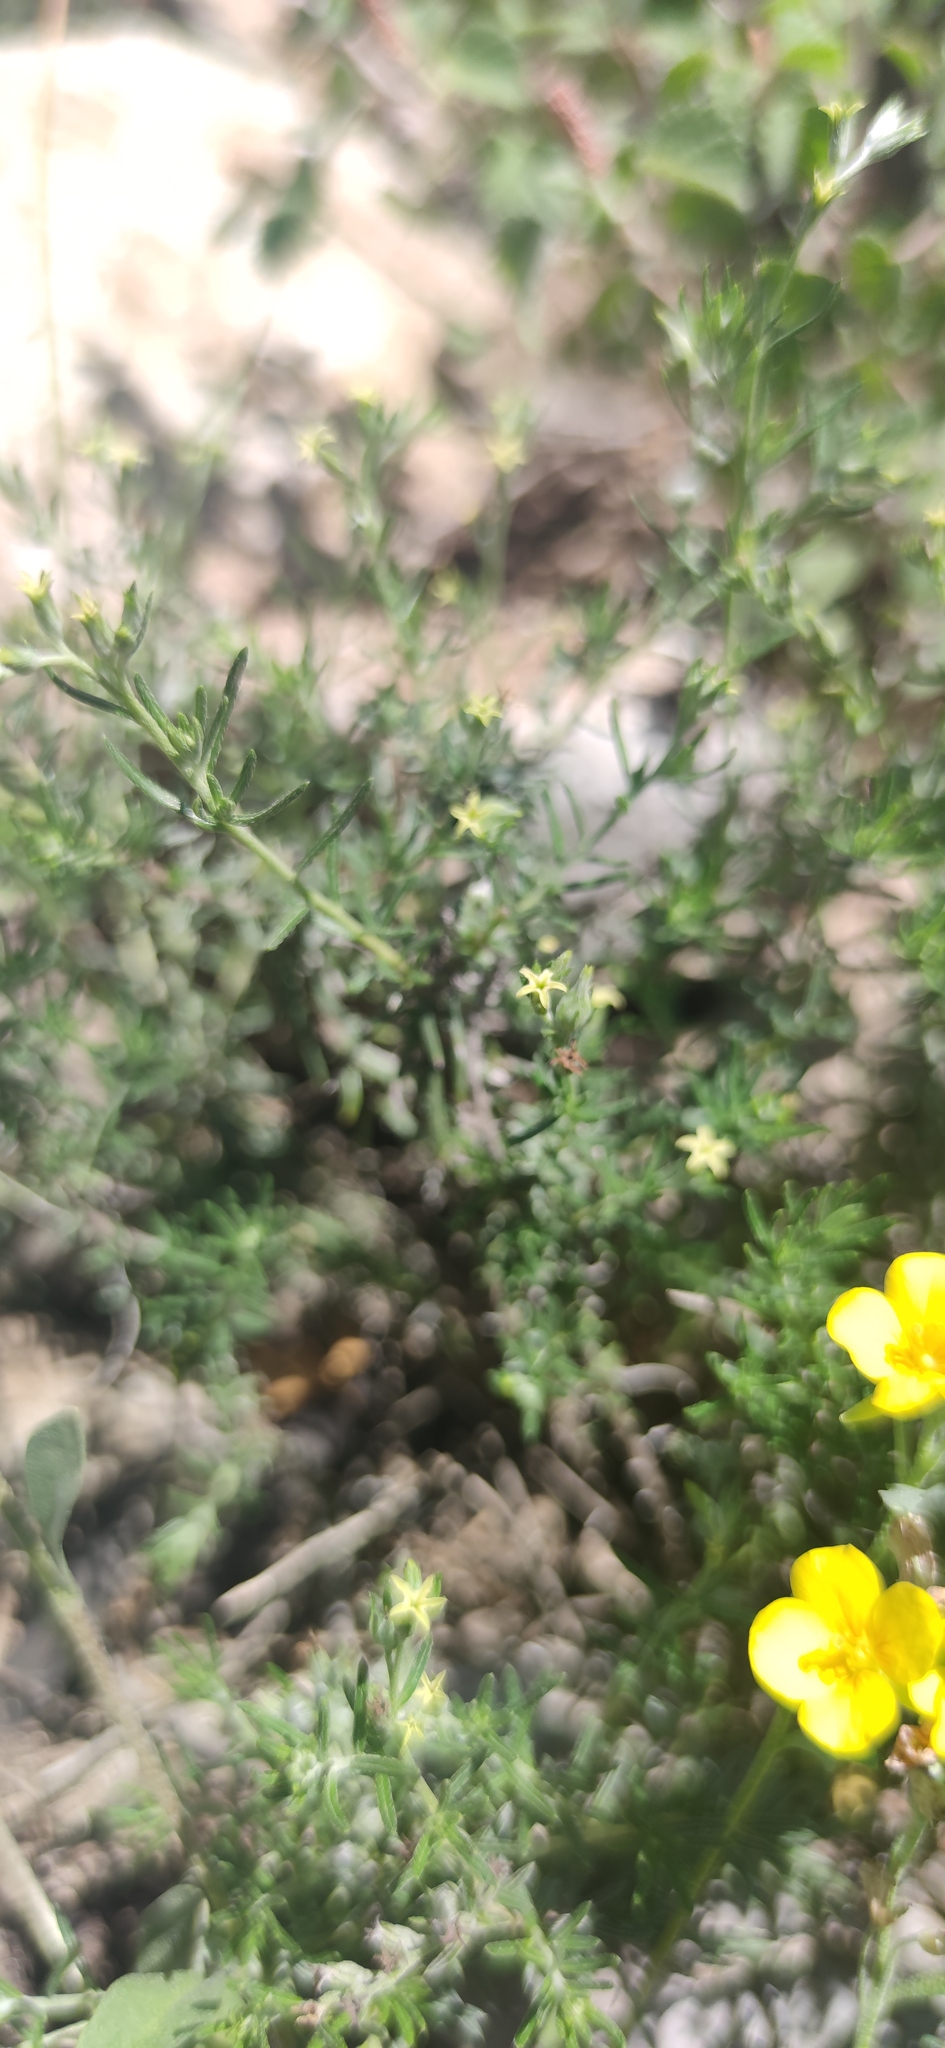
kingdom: Plantae
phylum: Tracheophyta
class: Magnoliopsida
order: Boraginales
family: Heliotropiaceae
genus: Euploca
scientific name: Euploca torreyi
